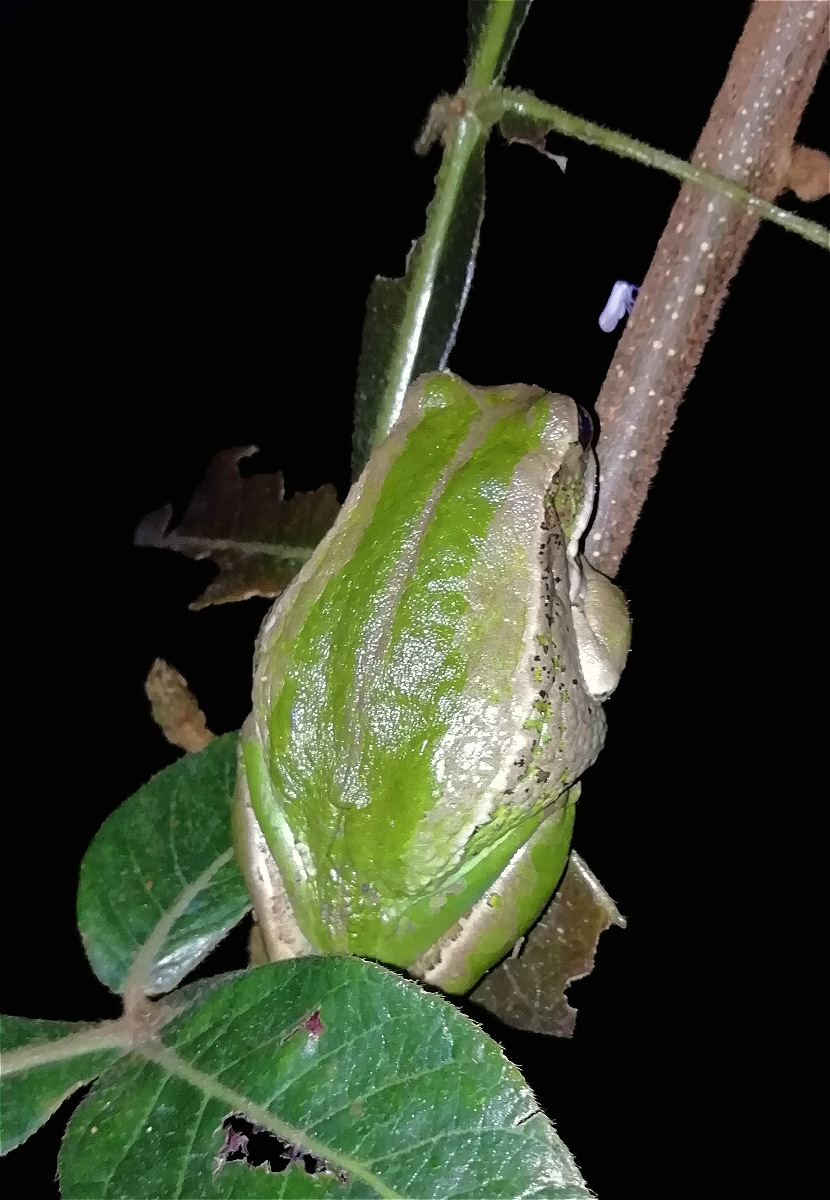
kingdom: Animalia
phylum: Chordata
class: Amphibia
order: Anura
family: Hemiphractidae
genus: Gastrotheca
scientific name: Gastrotheca cuencana
